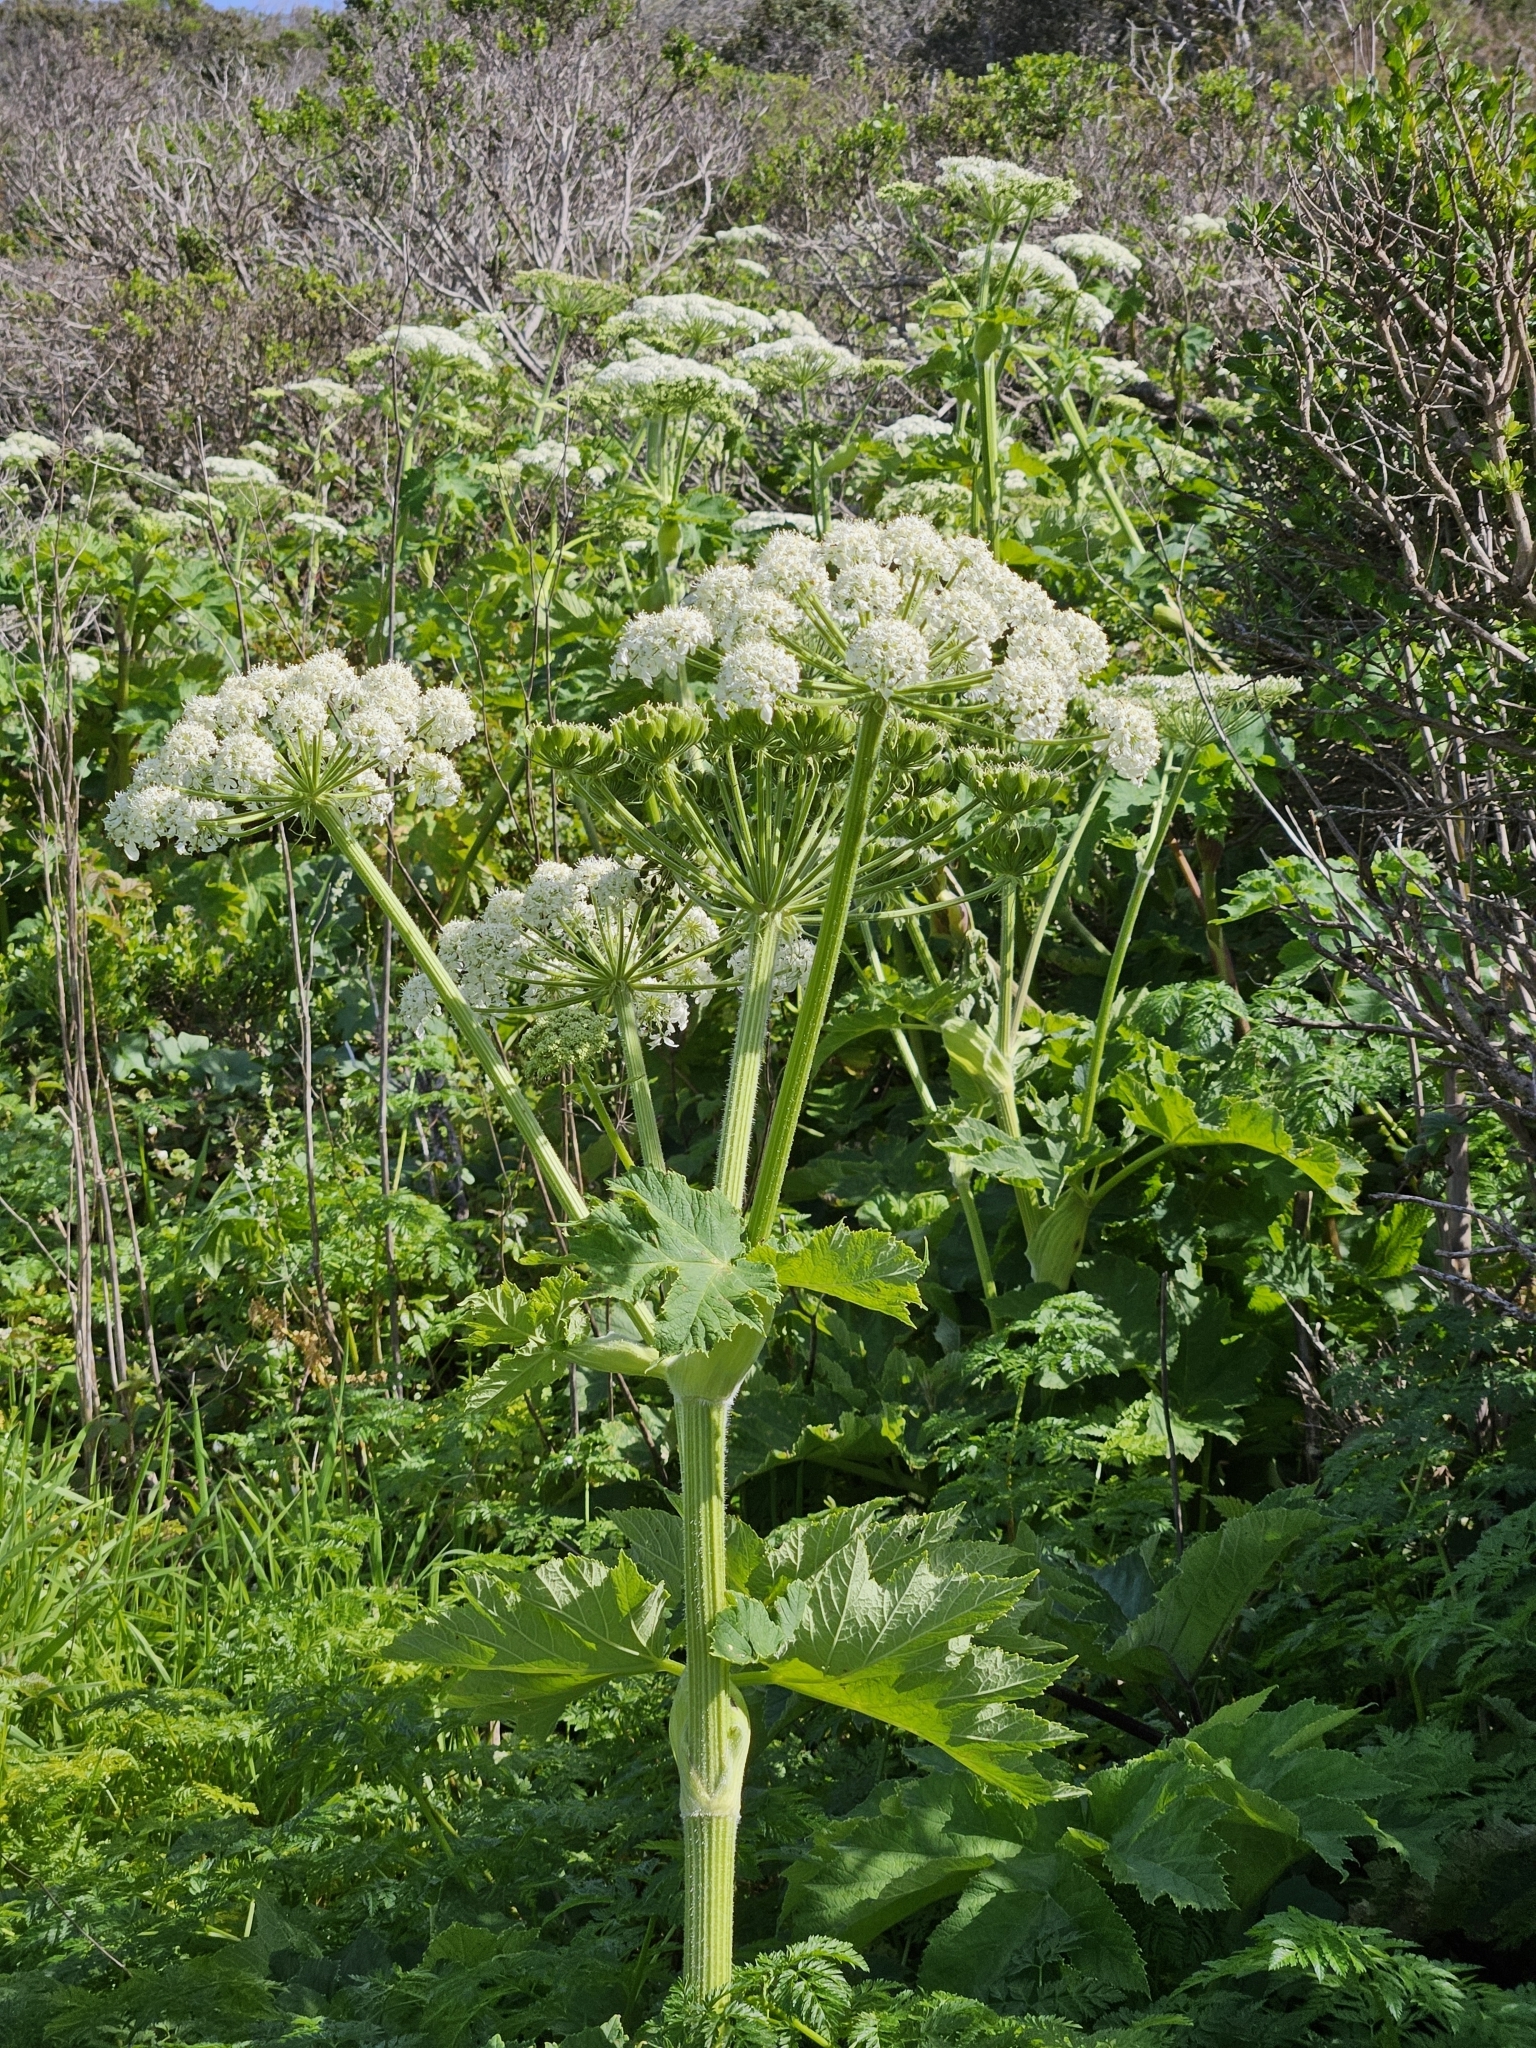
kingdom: Plantae
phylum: Tracheophyta
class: Magnoliopsida
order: Apiales
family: Apiaceae
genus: Heracleum
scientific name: Heracleum maximum
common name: American cow parsnip
